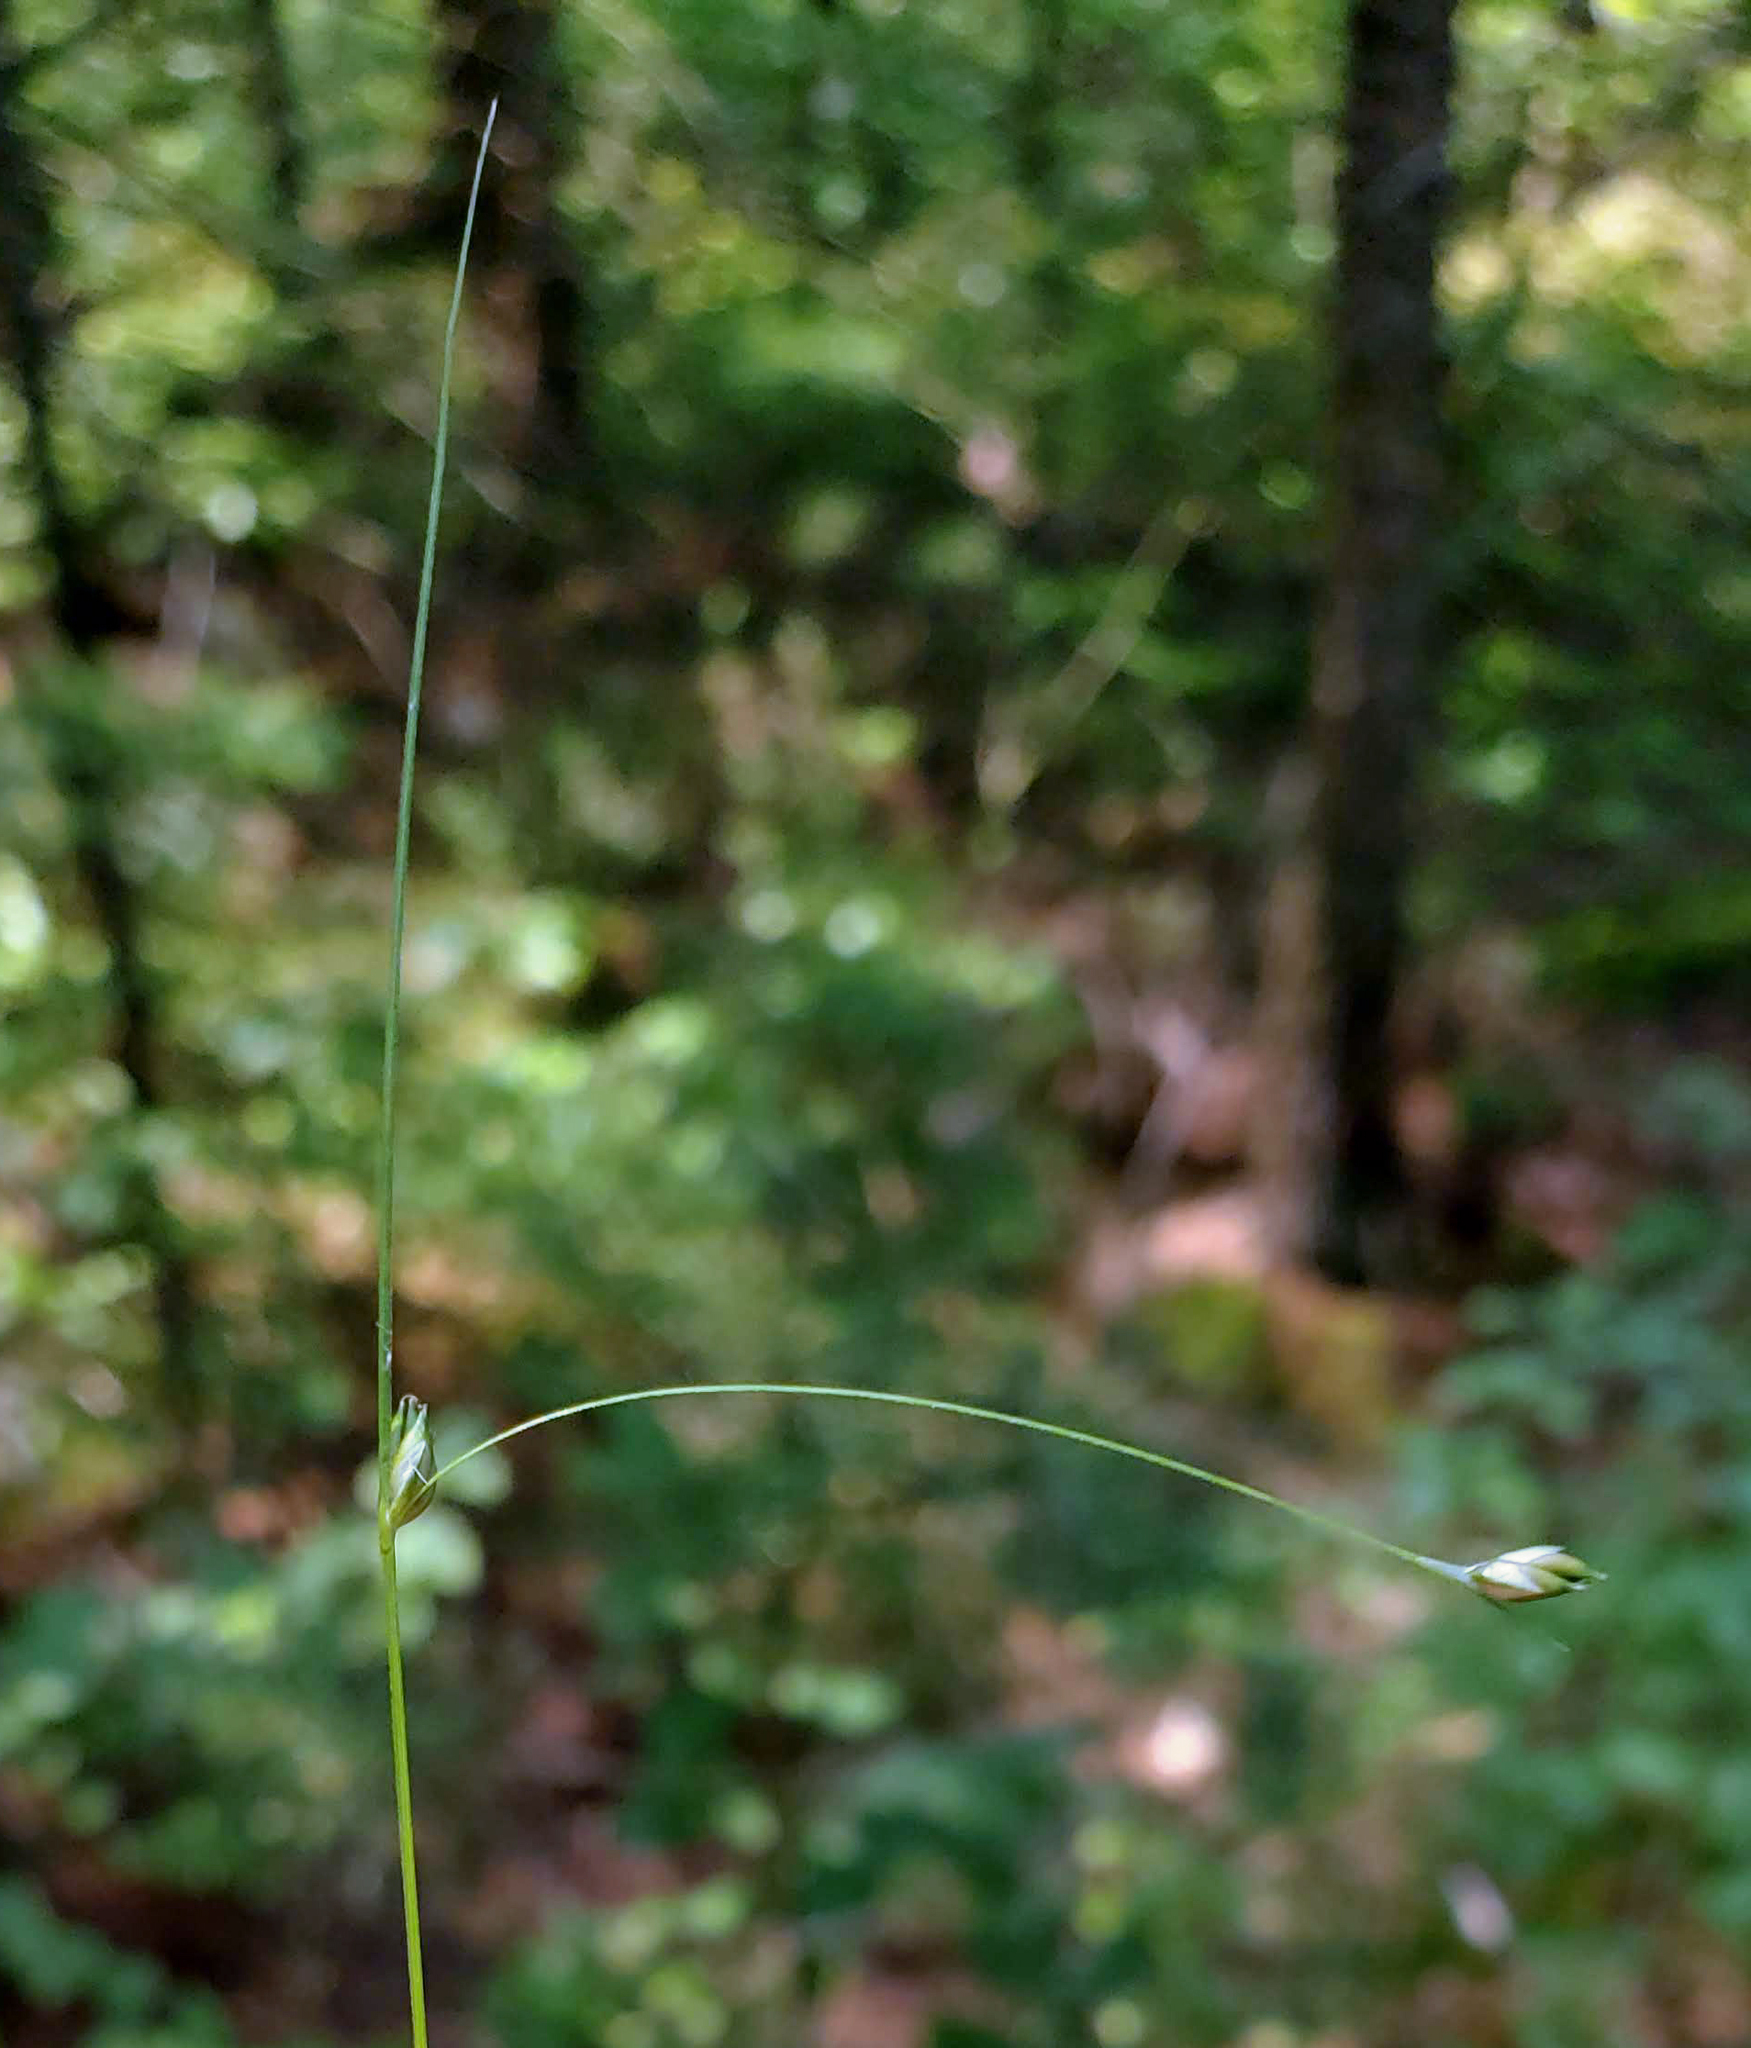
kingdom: Plantae
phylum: Tracheophyta
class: Liliopsida
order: Poales
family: Cyperaceae
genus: Carex
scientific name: Carex trisperma
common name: Three-seeded sedge
